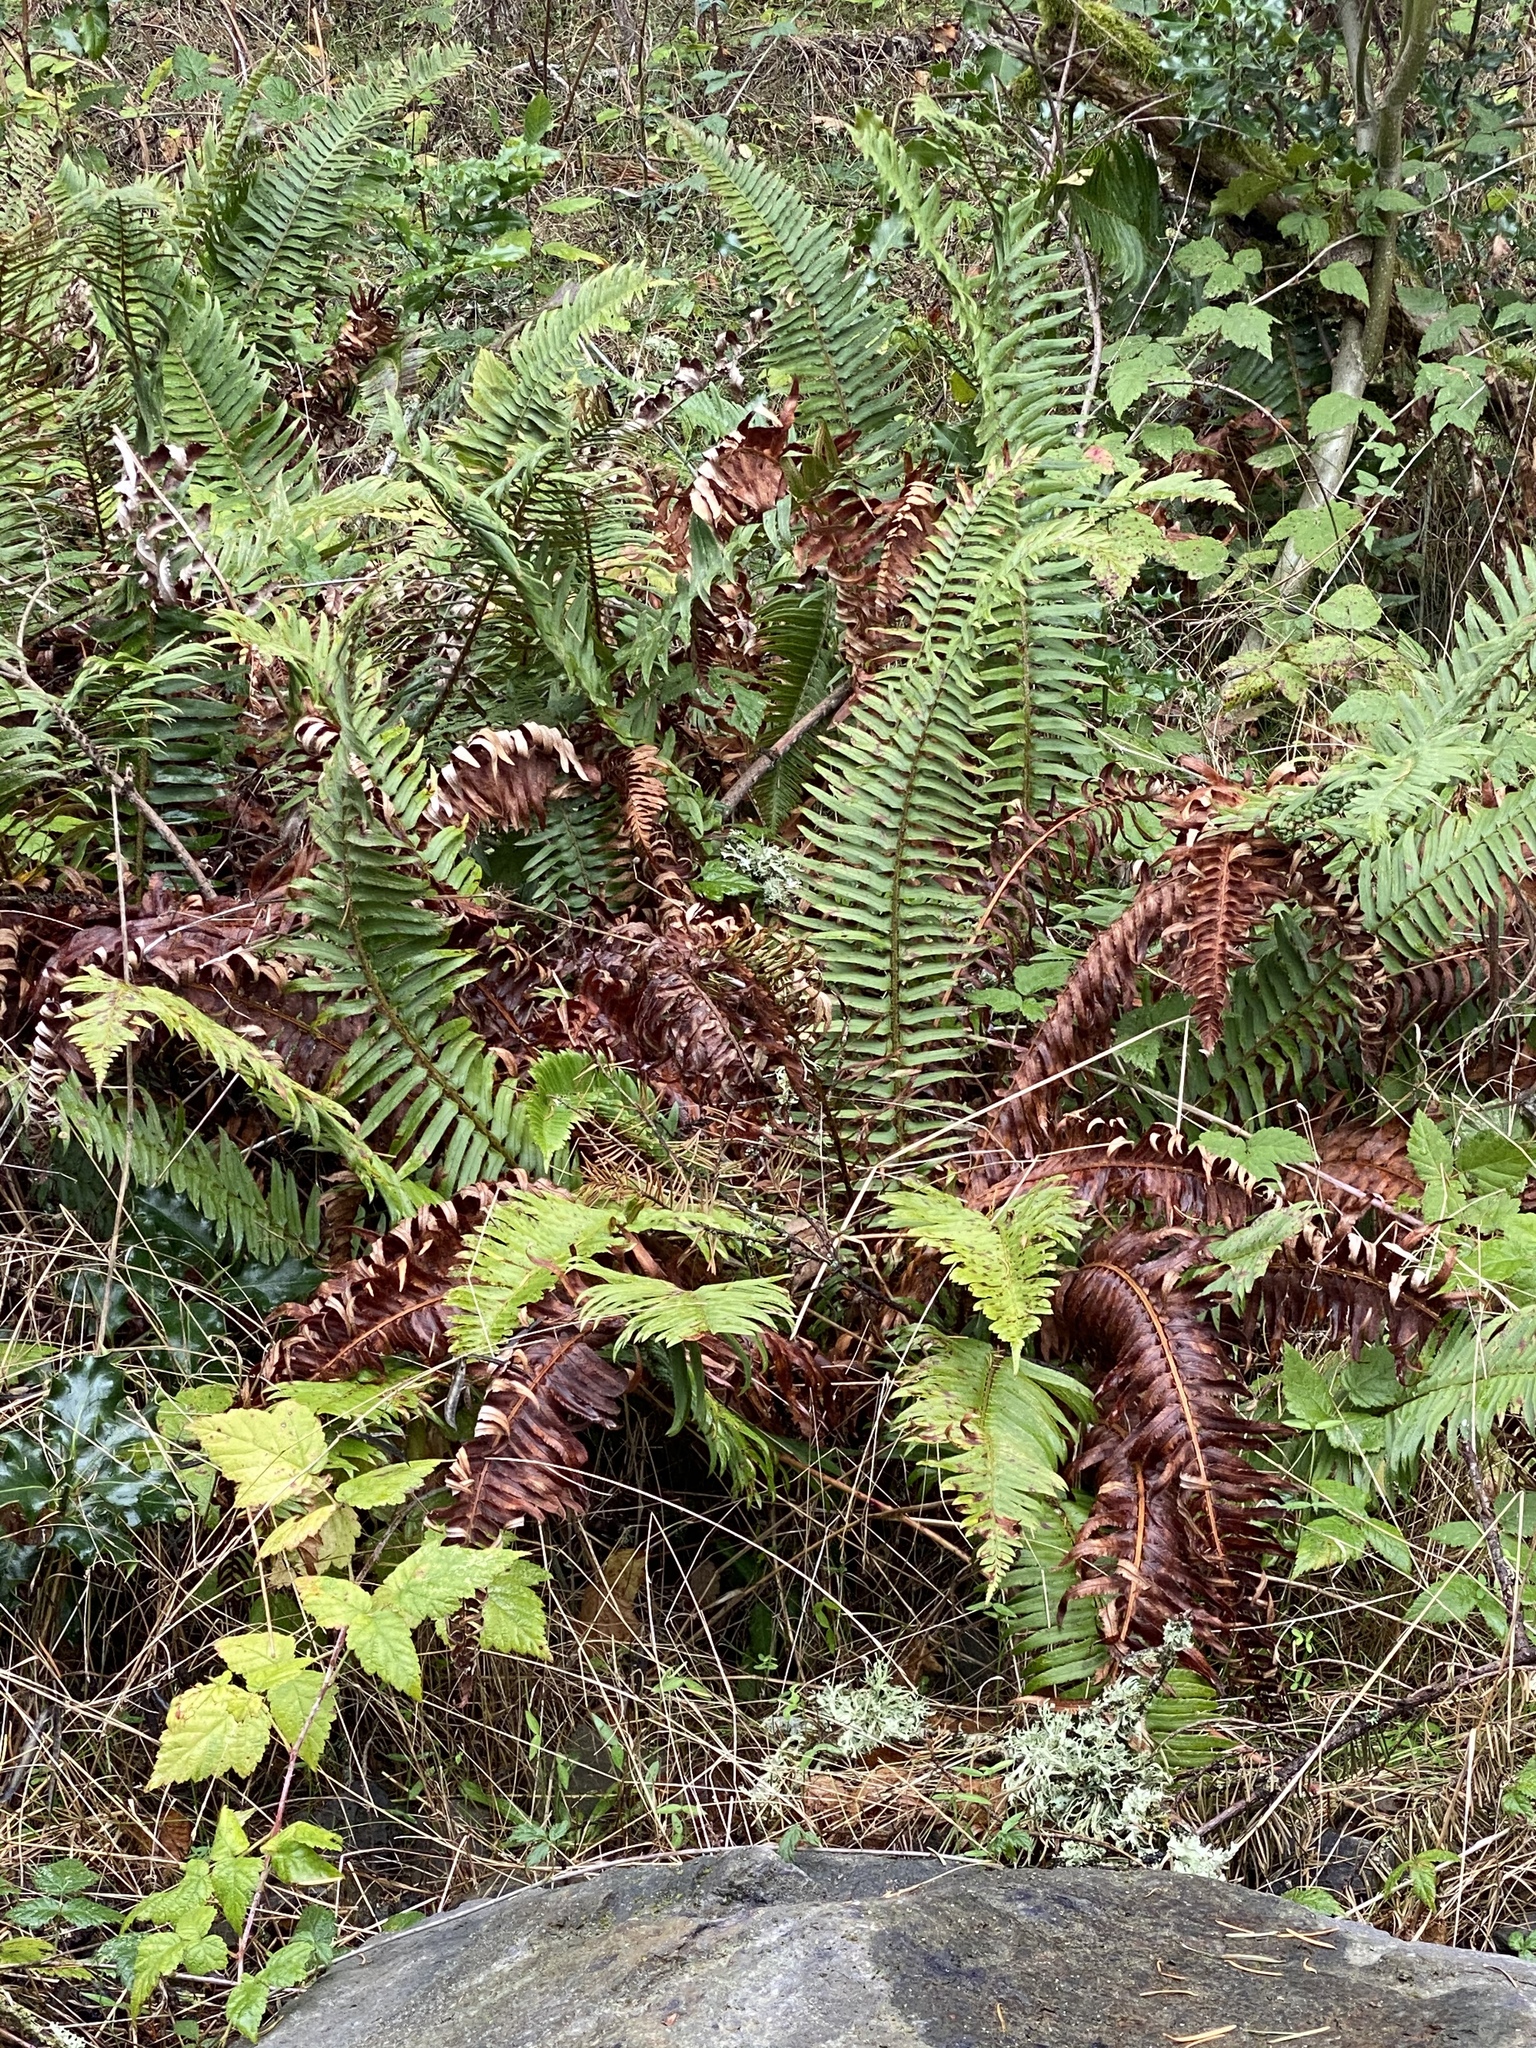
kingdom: Plantae
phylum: Tracheophyta
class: Polypodiopsida
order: Polypodiales
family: Dryopteridaceae
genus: Polystichum
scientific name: Polystichum munitum
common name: Western sword-fern
